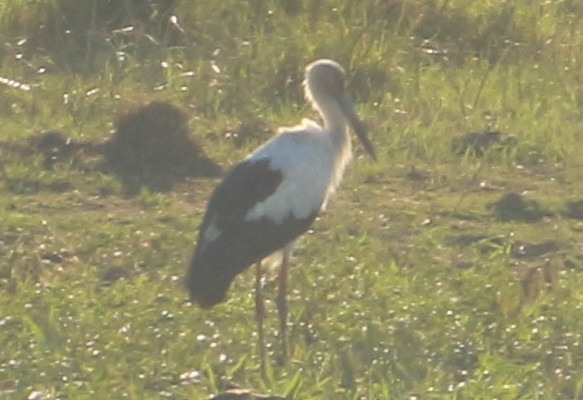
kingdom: Animalia
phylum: Chordata
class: Aves
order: Ciconiiformes
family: Ciconiidae
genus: Ciconia
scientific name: Ciconia maguari
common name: Maguari stork
